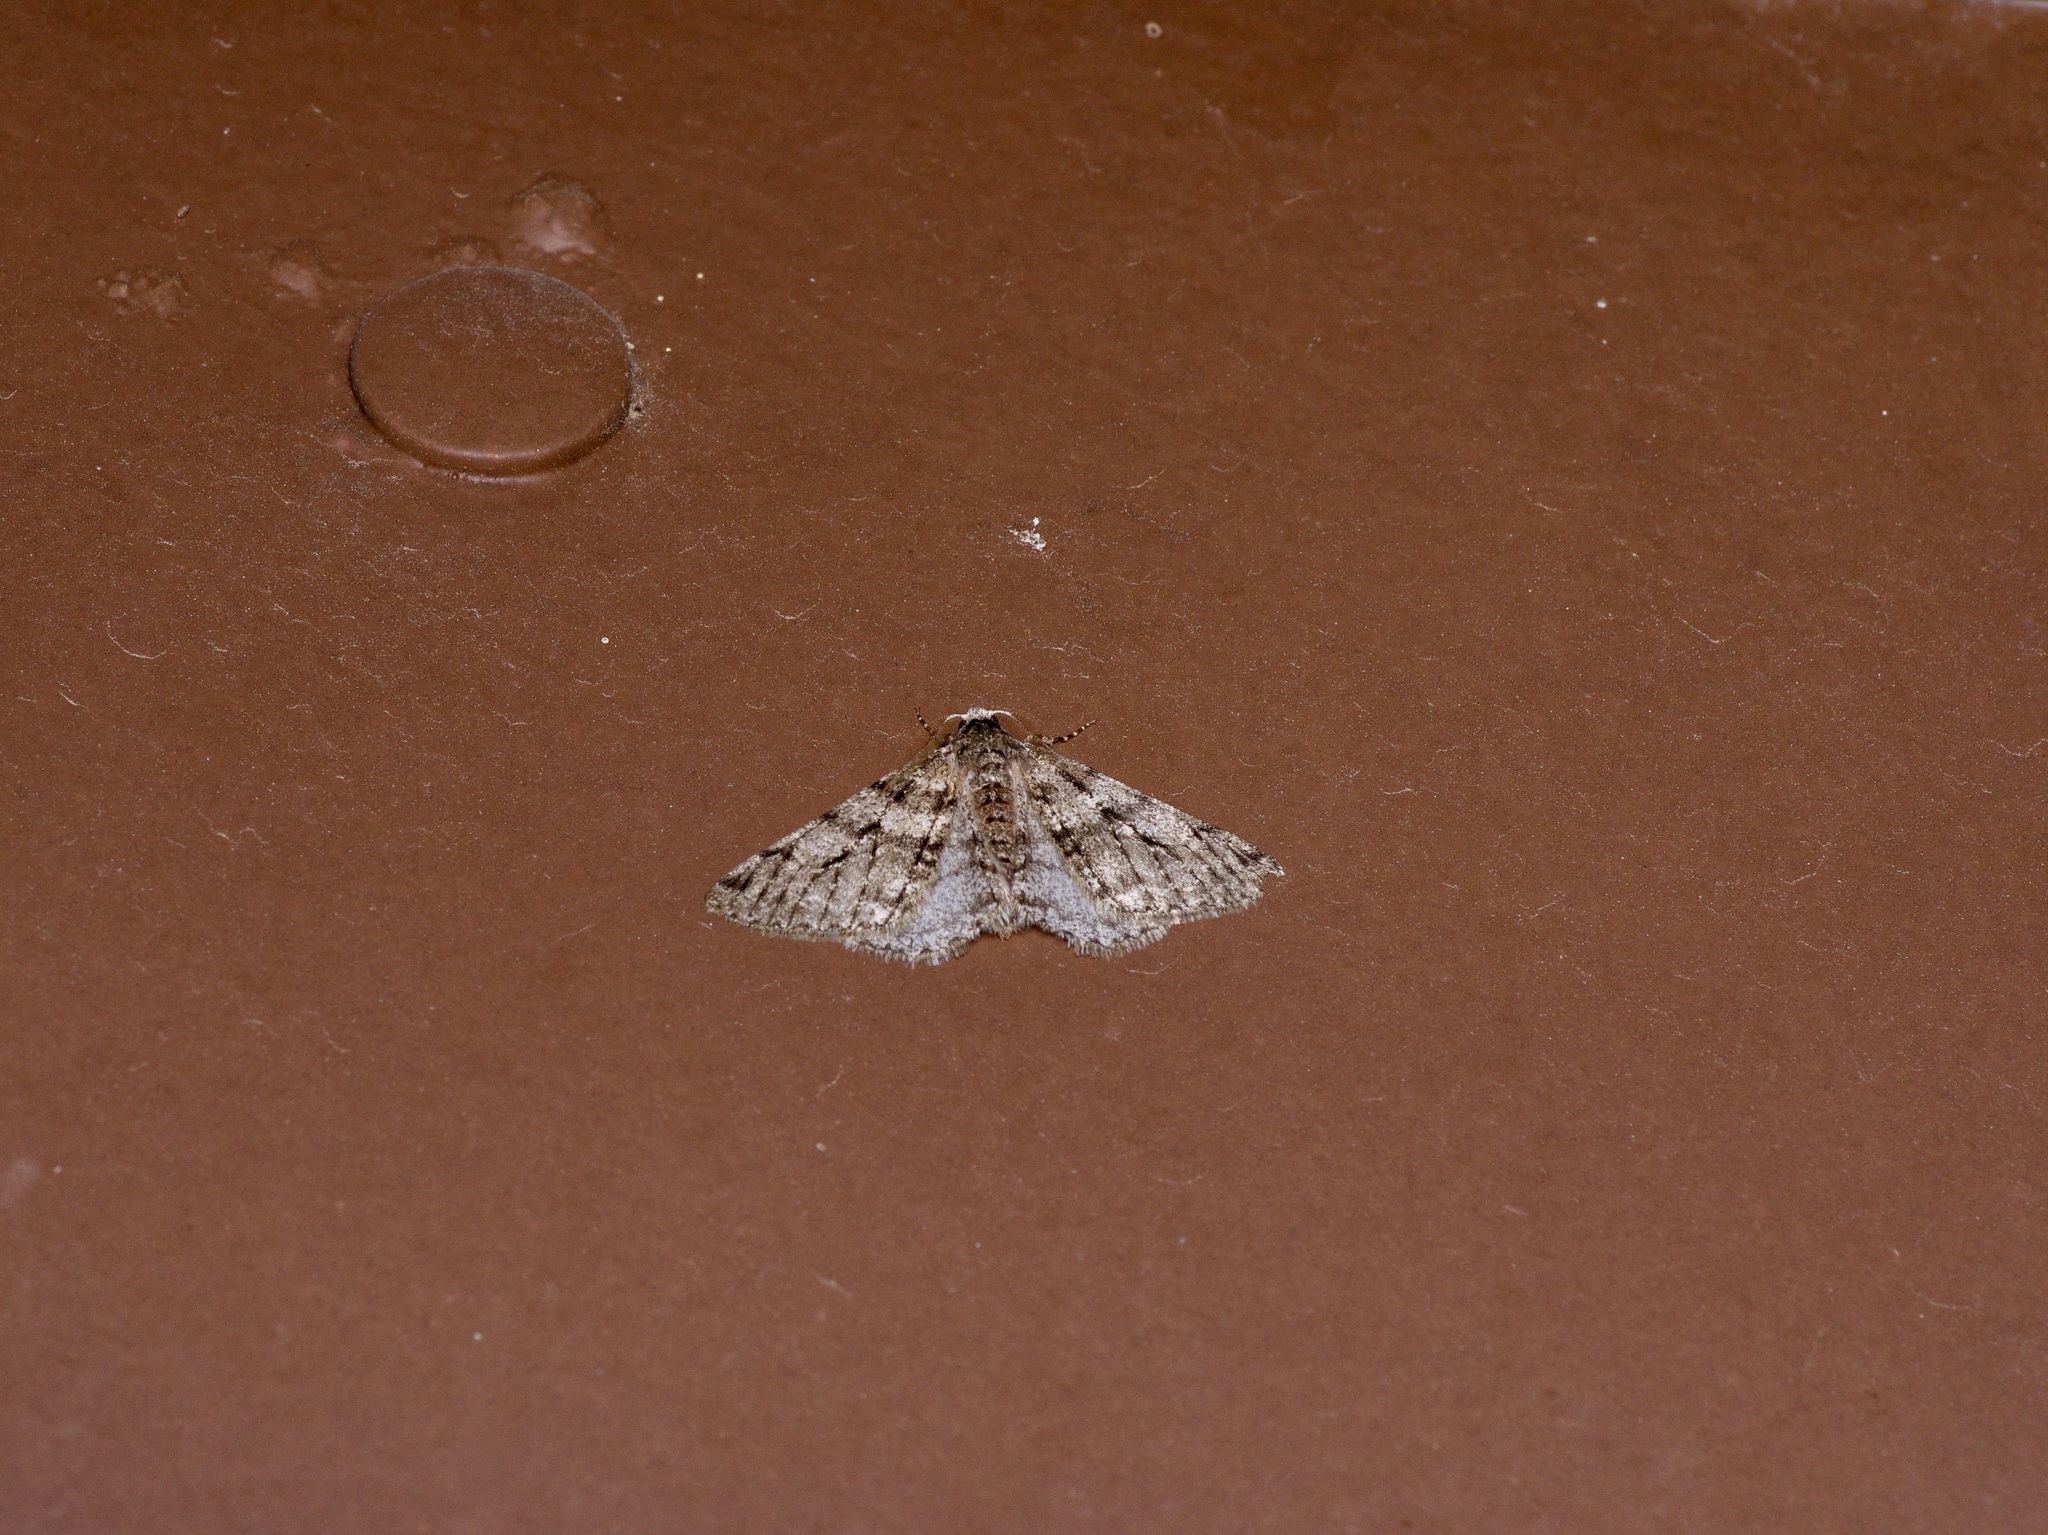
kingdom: Animalia
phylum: Arthropoda
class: Insecta
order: Lepidoptera
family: Geometridae
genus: Phigalia
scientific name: Phigalia titea
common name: Spiny looper
